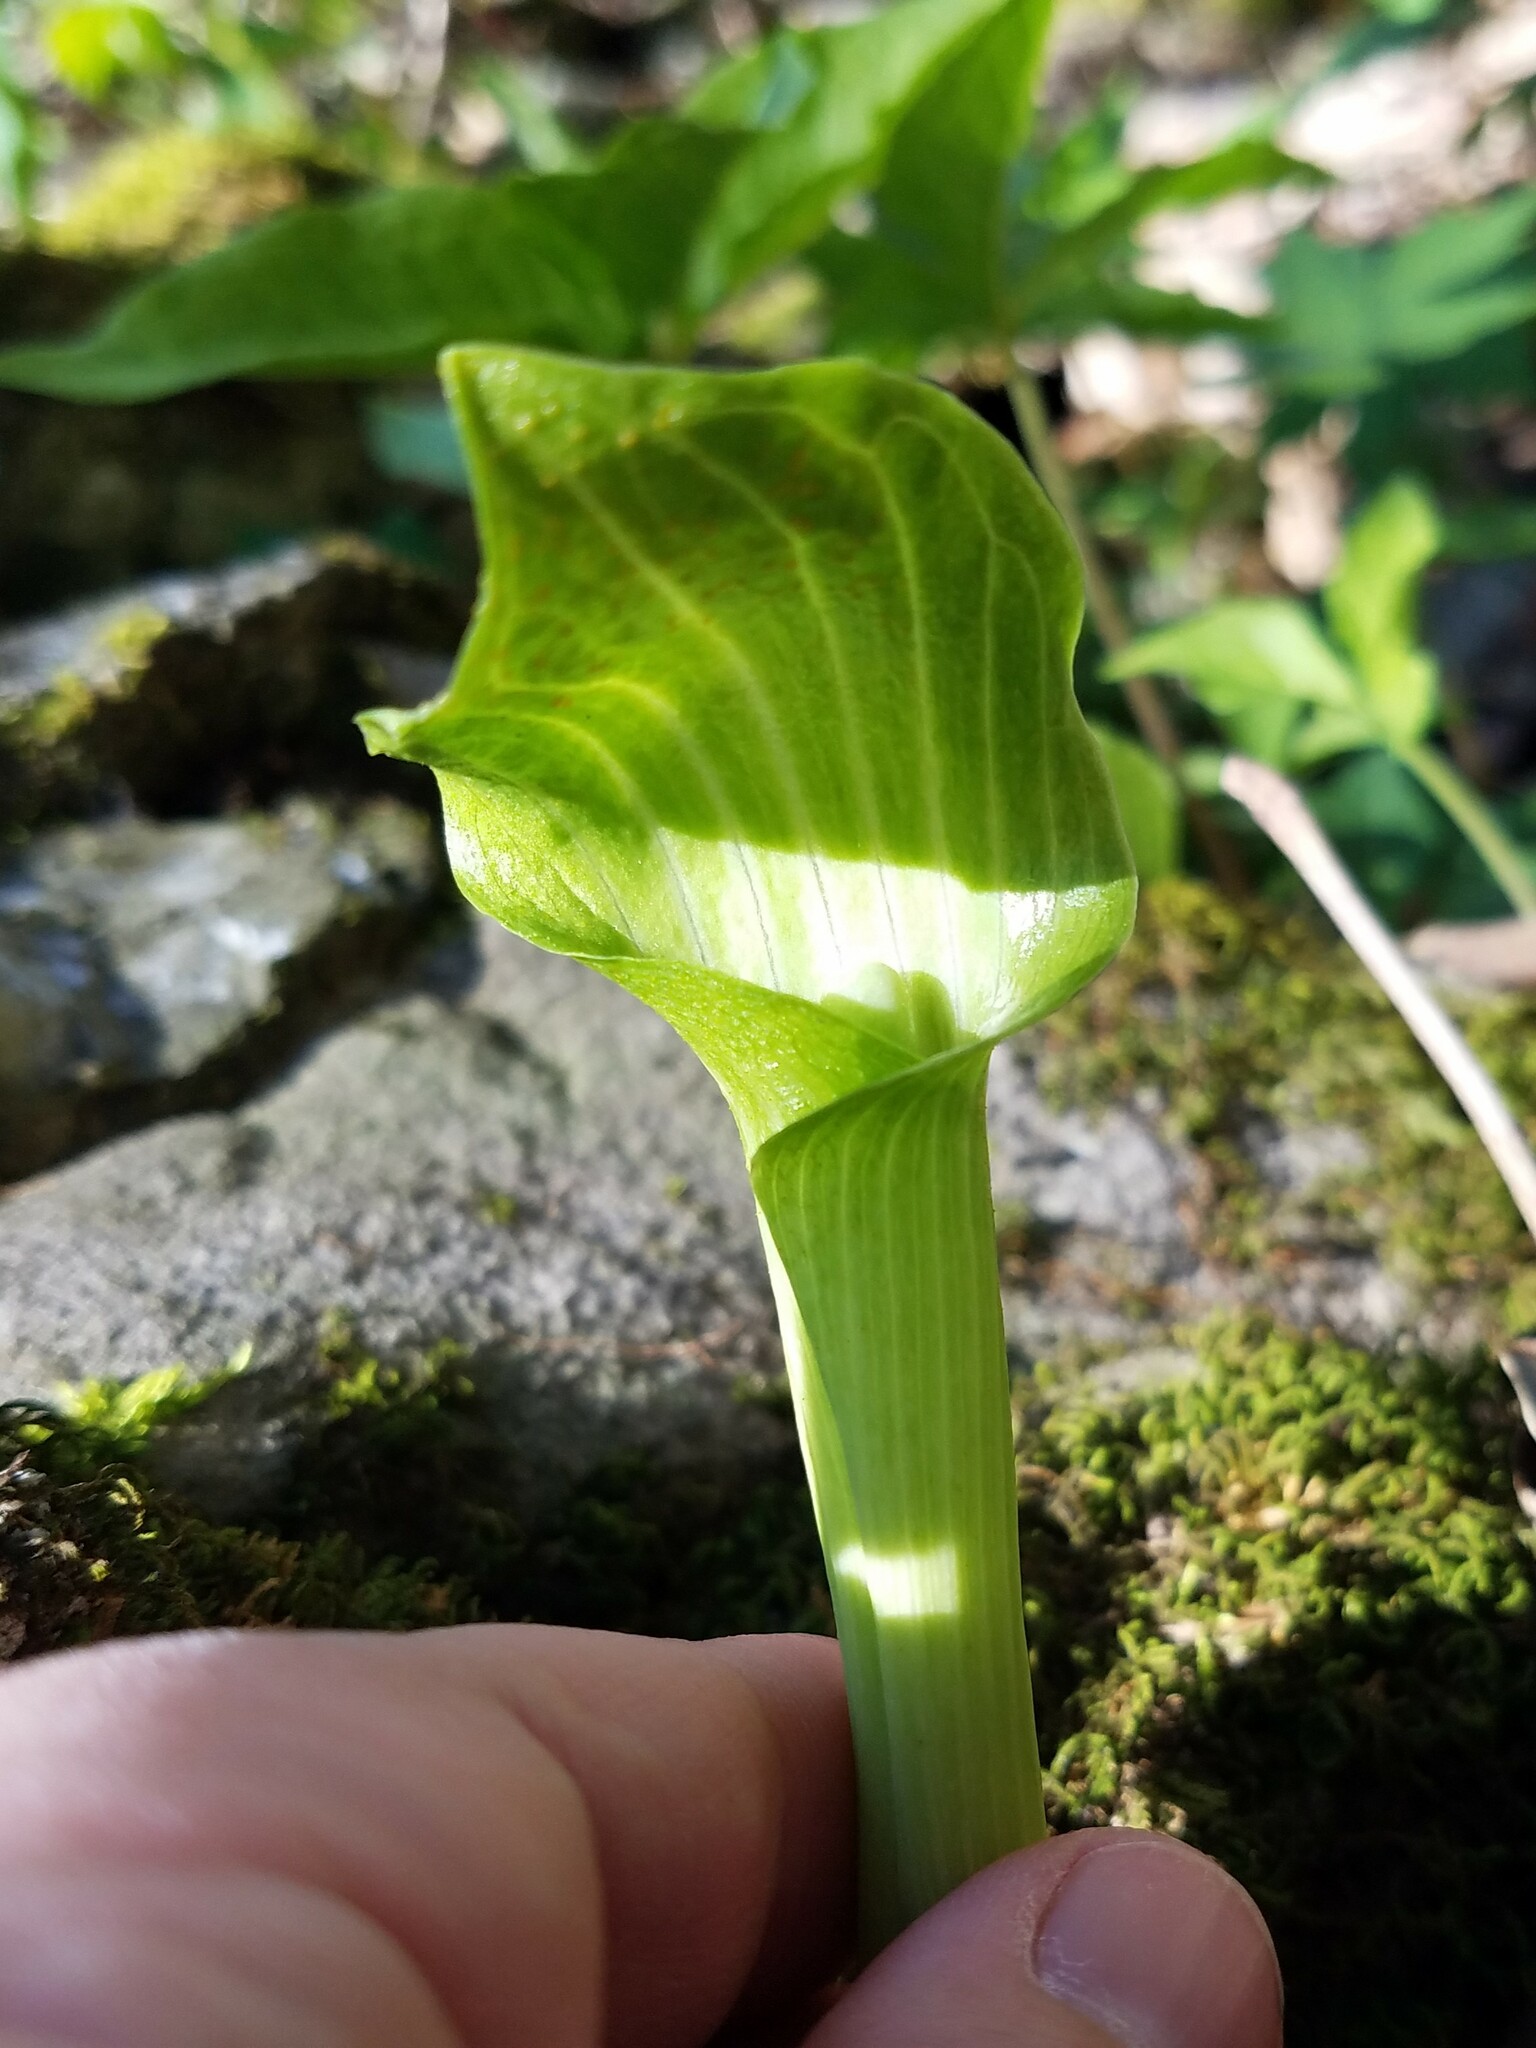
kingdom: Fungi
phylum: Basidiomycota
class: Pucciniomycetes
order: Pucciniales
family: Pucciniaceae
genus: Uromyces
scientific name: Uromyces ari-triphylli
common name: Jack-in-the-pulpit rust
